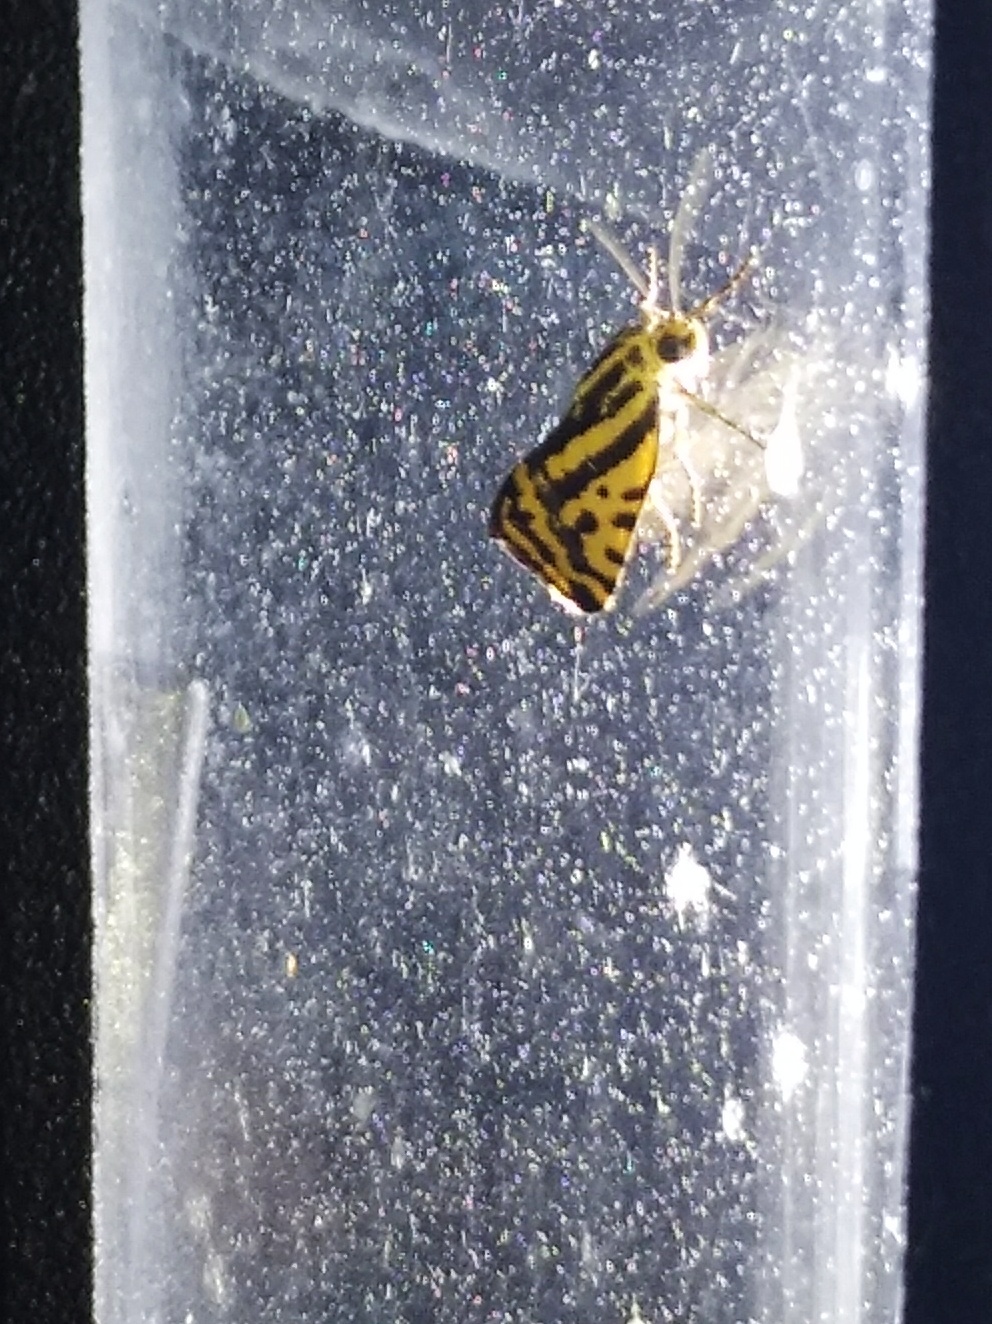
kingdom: Animalia
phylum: Arthropoda
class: Insecta
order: Lepidoptera
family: Noctuidae
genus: Acontia
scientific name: Acontia trabealis
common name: Spotted sulphur
